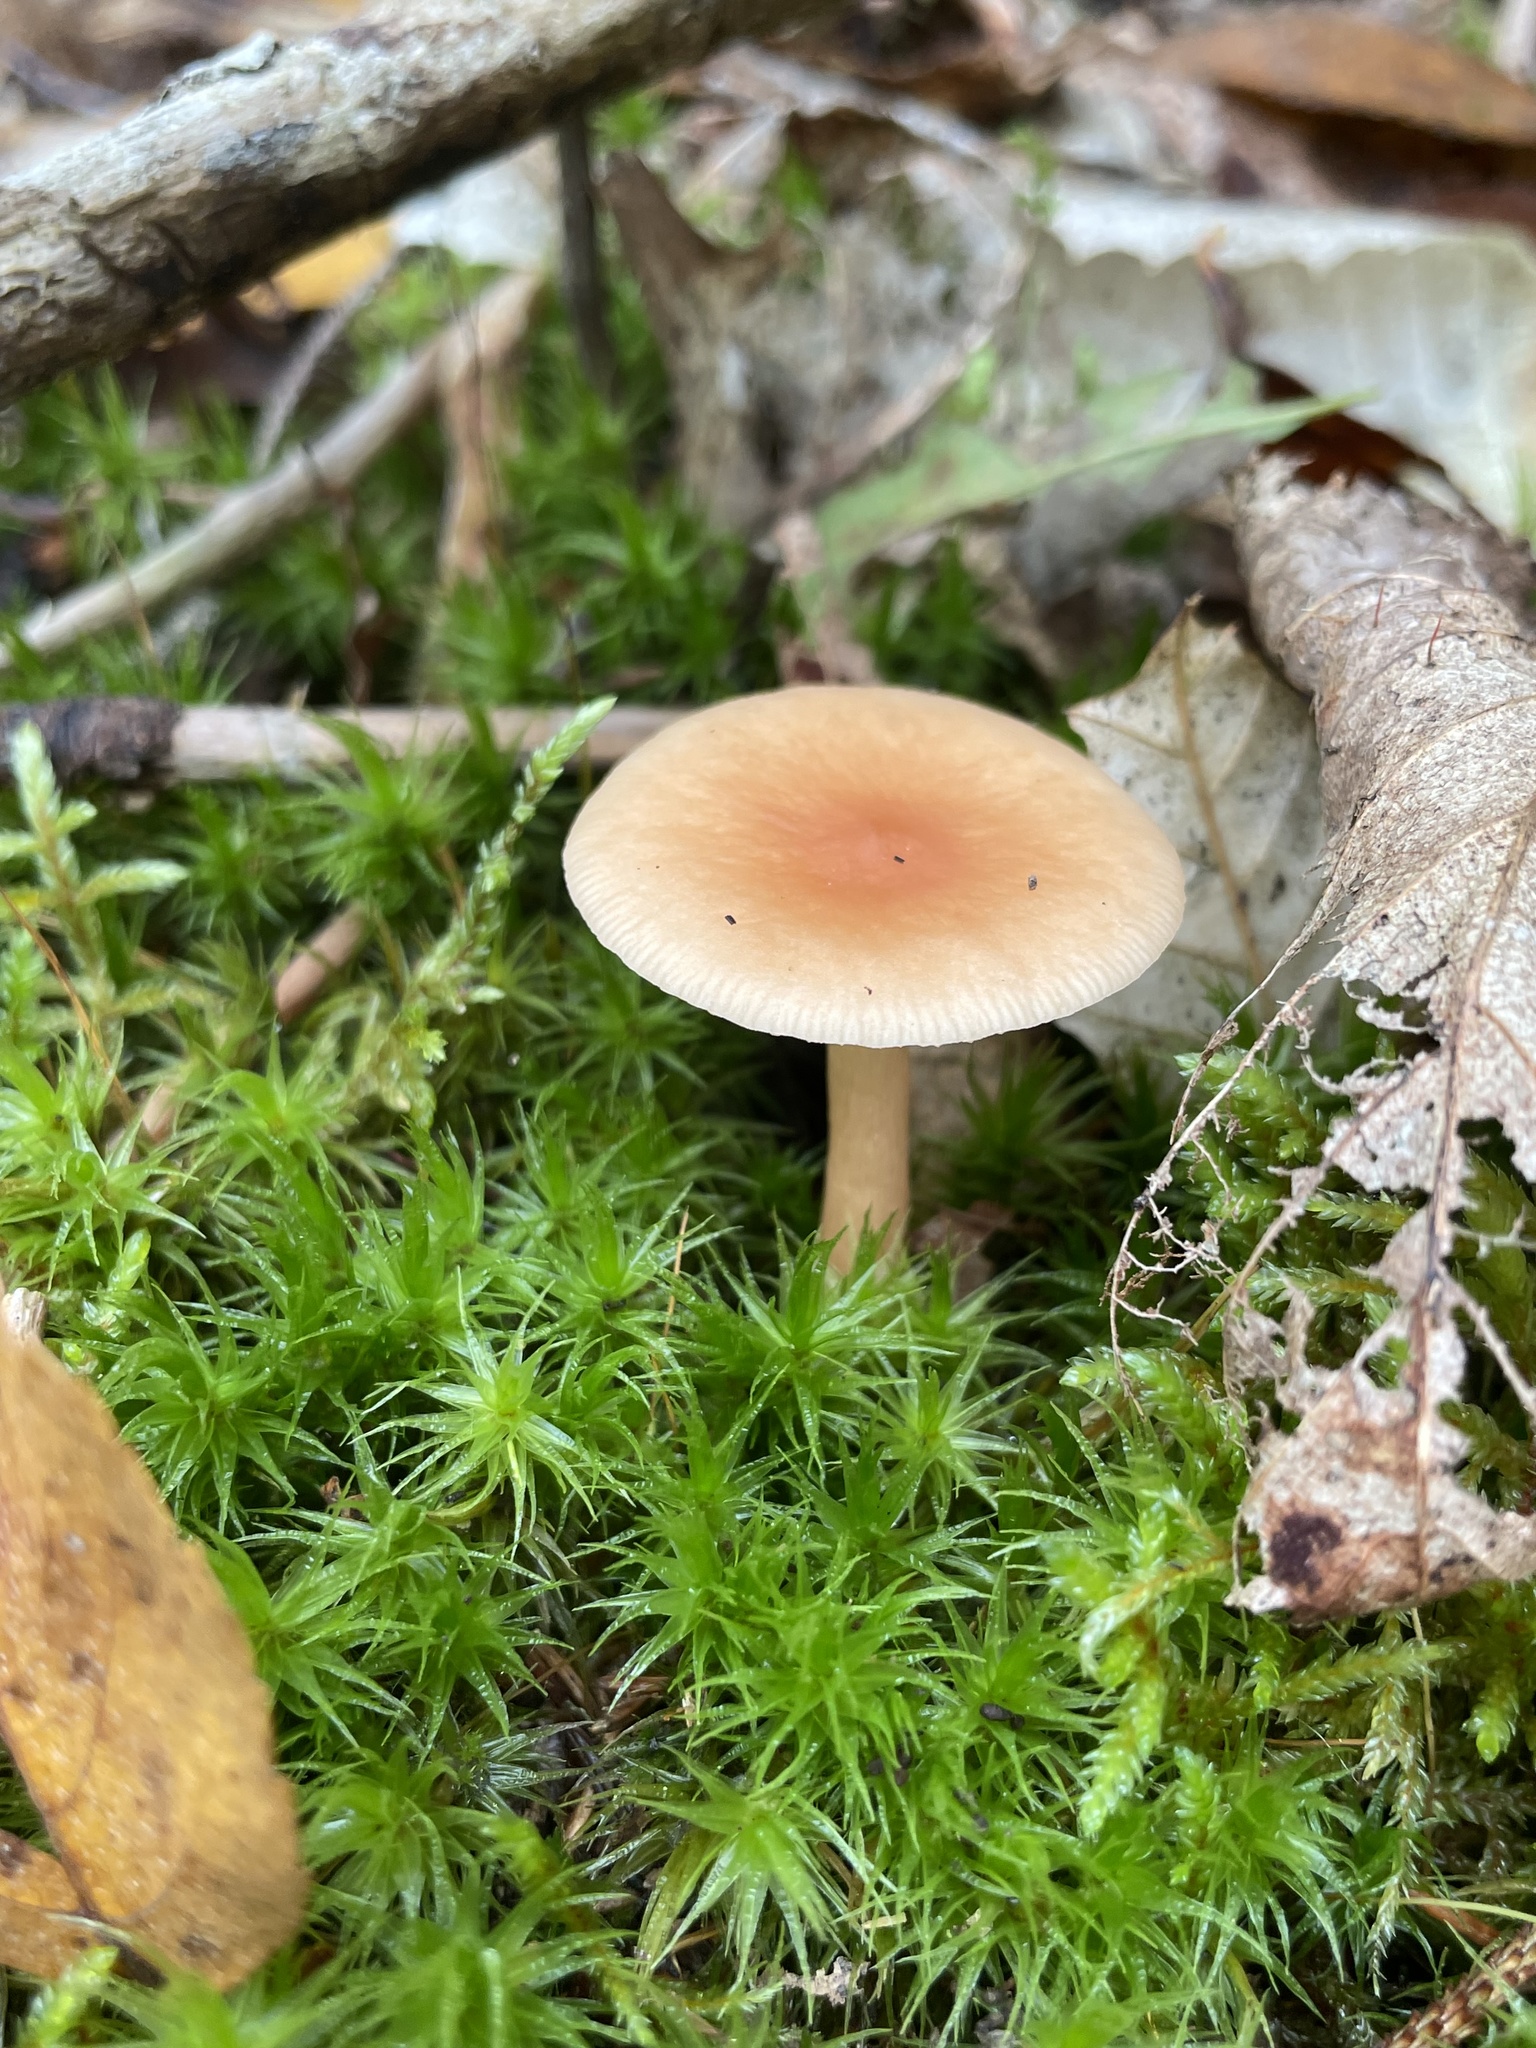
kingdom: Fungi
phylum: Basidiomycota
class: Agaricomycetes
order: Agaricales
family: Omphalotaceae
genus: Gymnopus
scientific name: Gymnopus dryophilus
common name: Penny top
